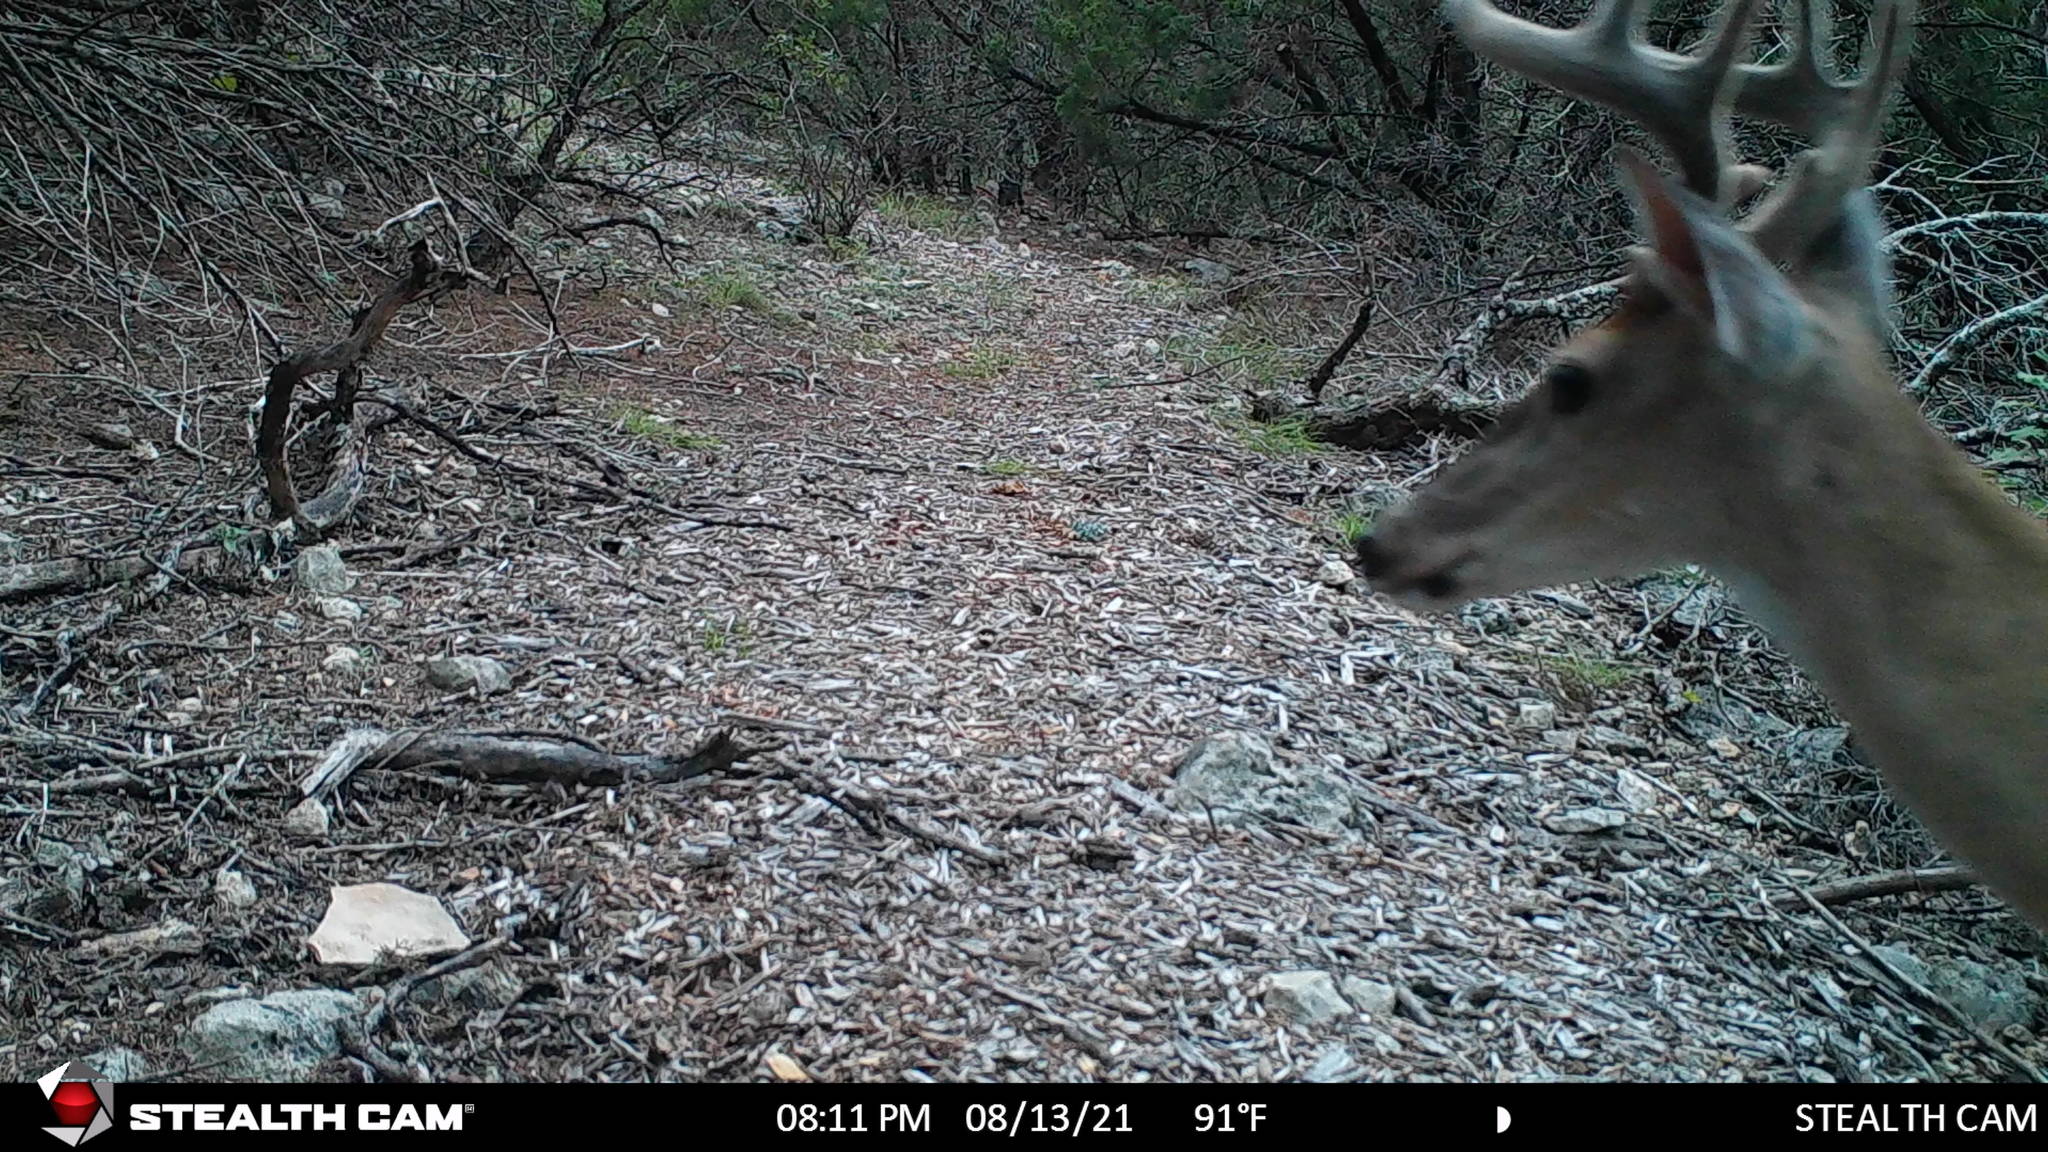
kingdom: Animalia
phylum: Chordata
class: Mammalia
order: Artiodactyla
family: Cervidae
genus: Odocoileus
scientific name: Odocoileus virginianus
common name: White-tailed deer
